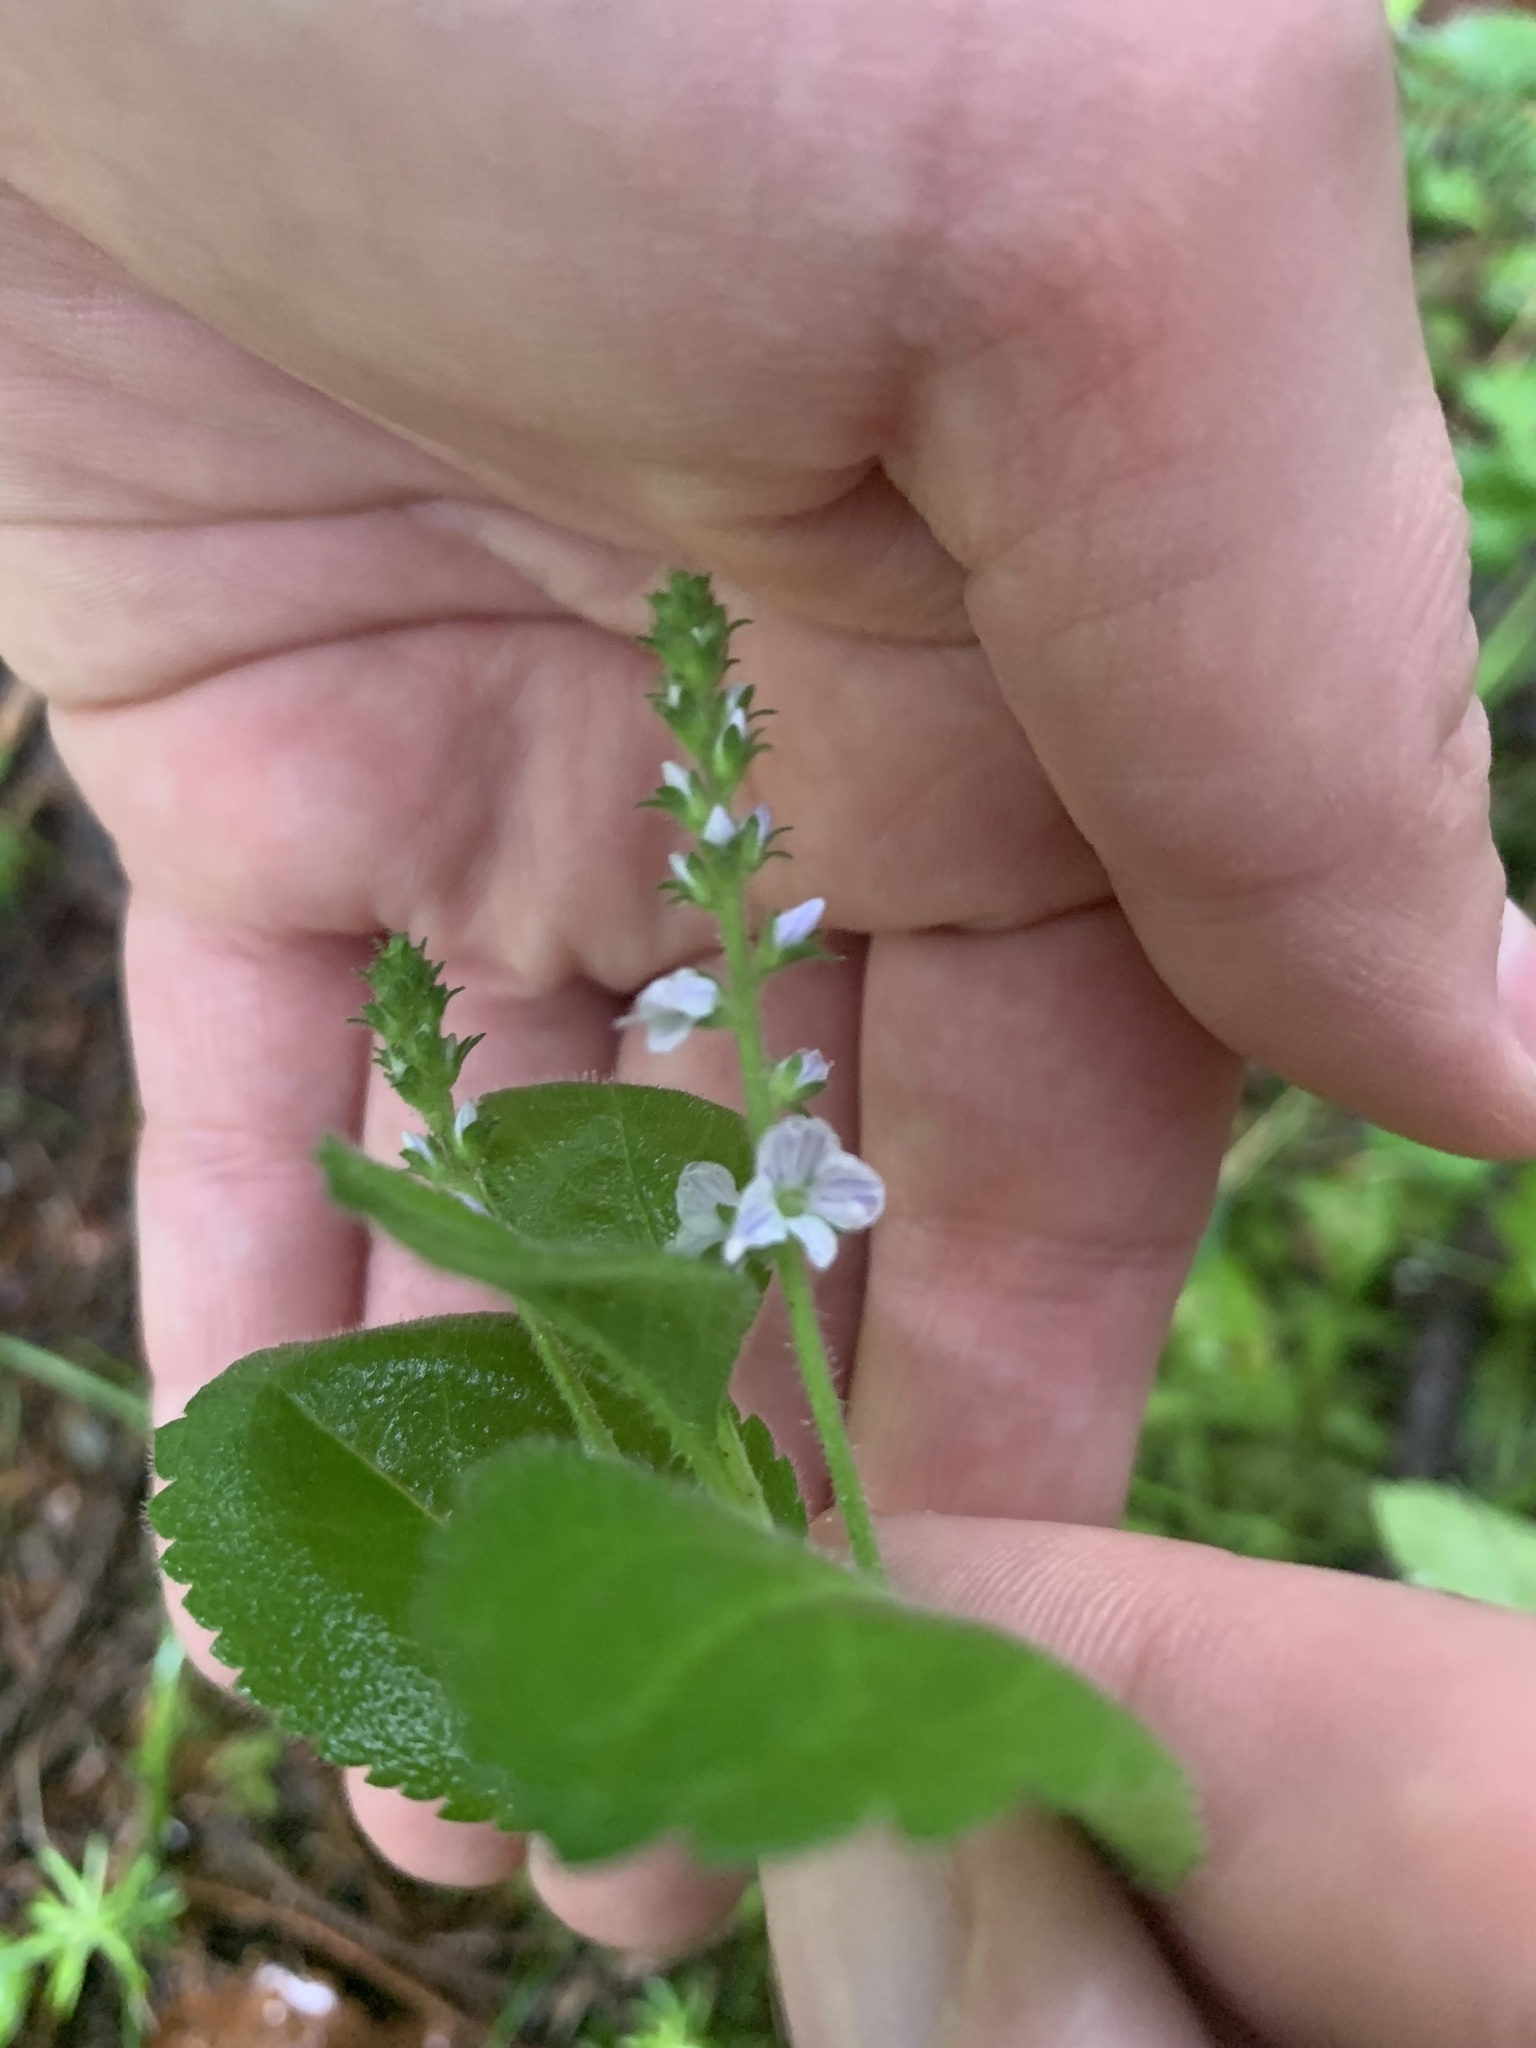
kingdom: Plantae
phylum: Tracheophyta
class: Magnoliopsida
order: Lamiales
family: Plantaginaceae
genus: Veronica
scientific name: Veronica officinalis
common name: Common speedwell
